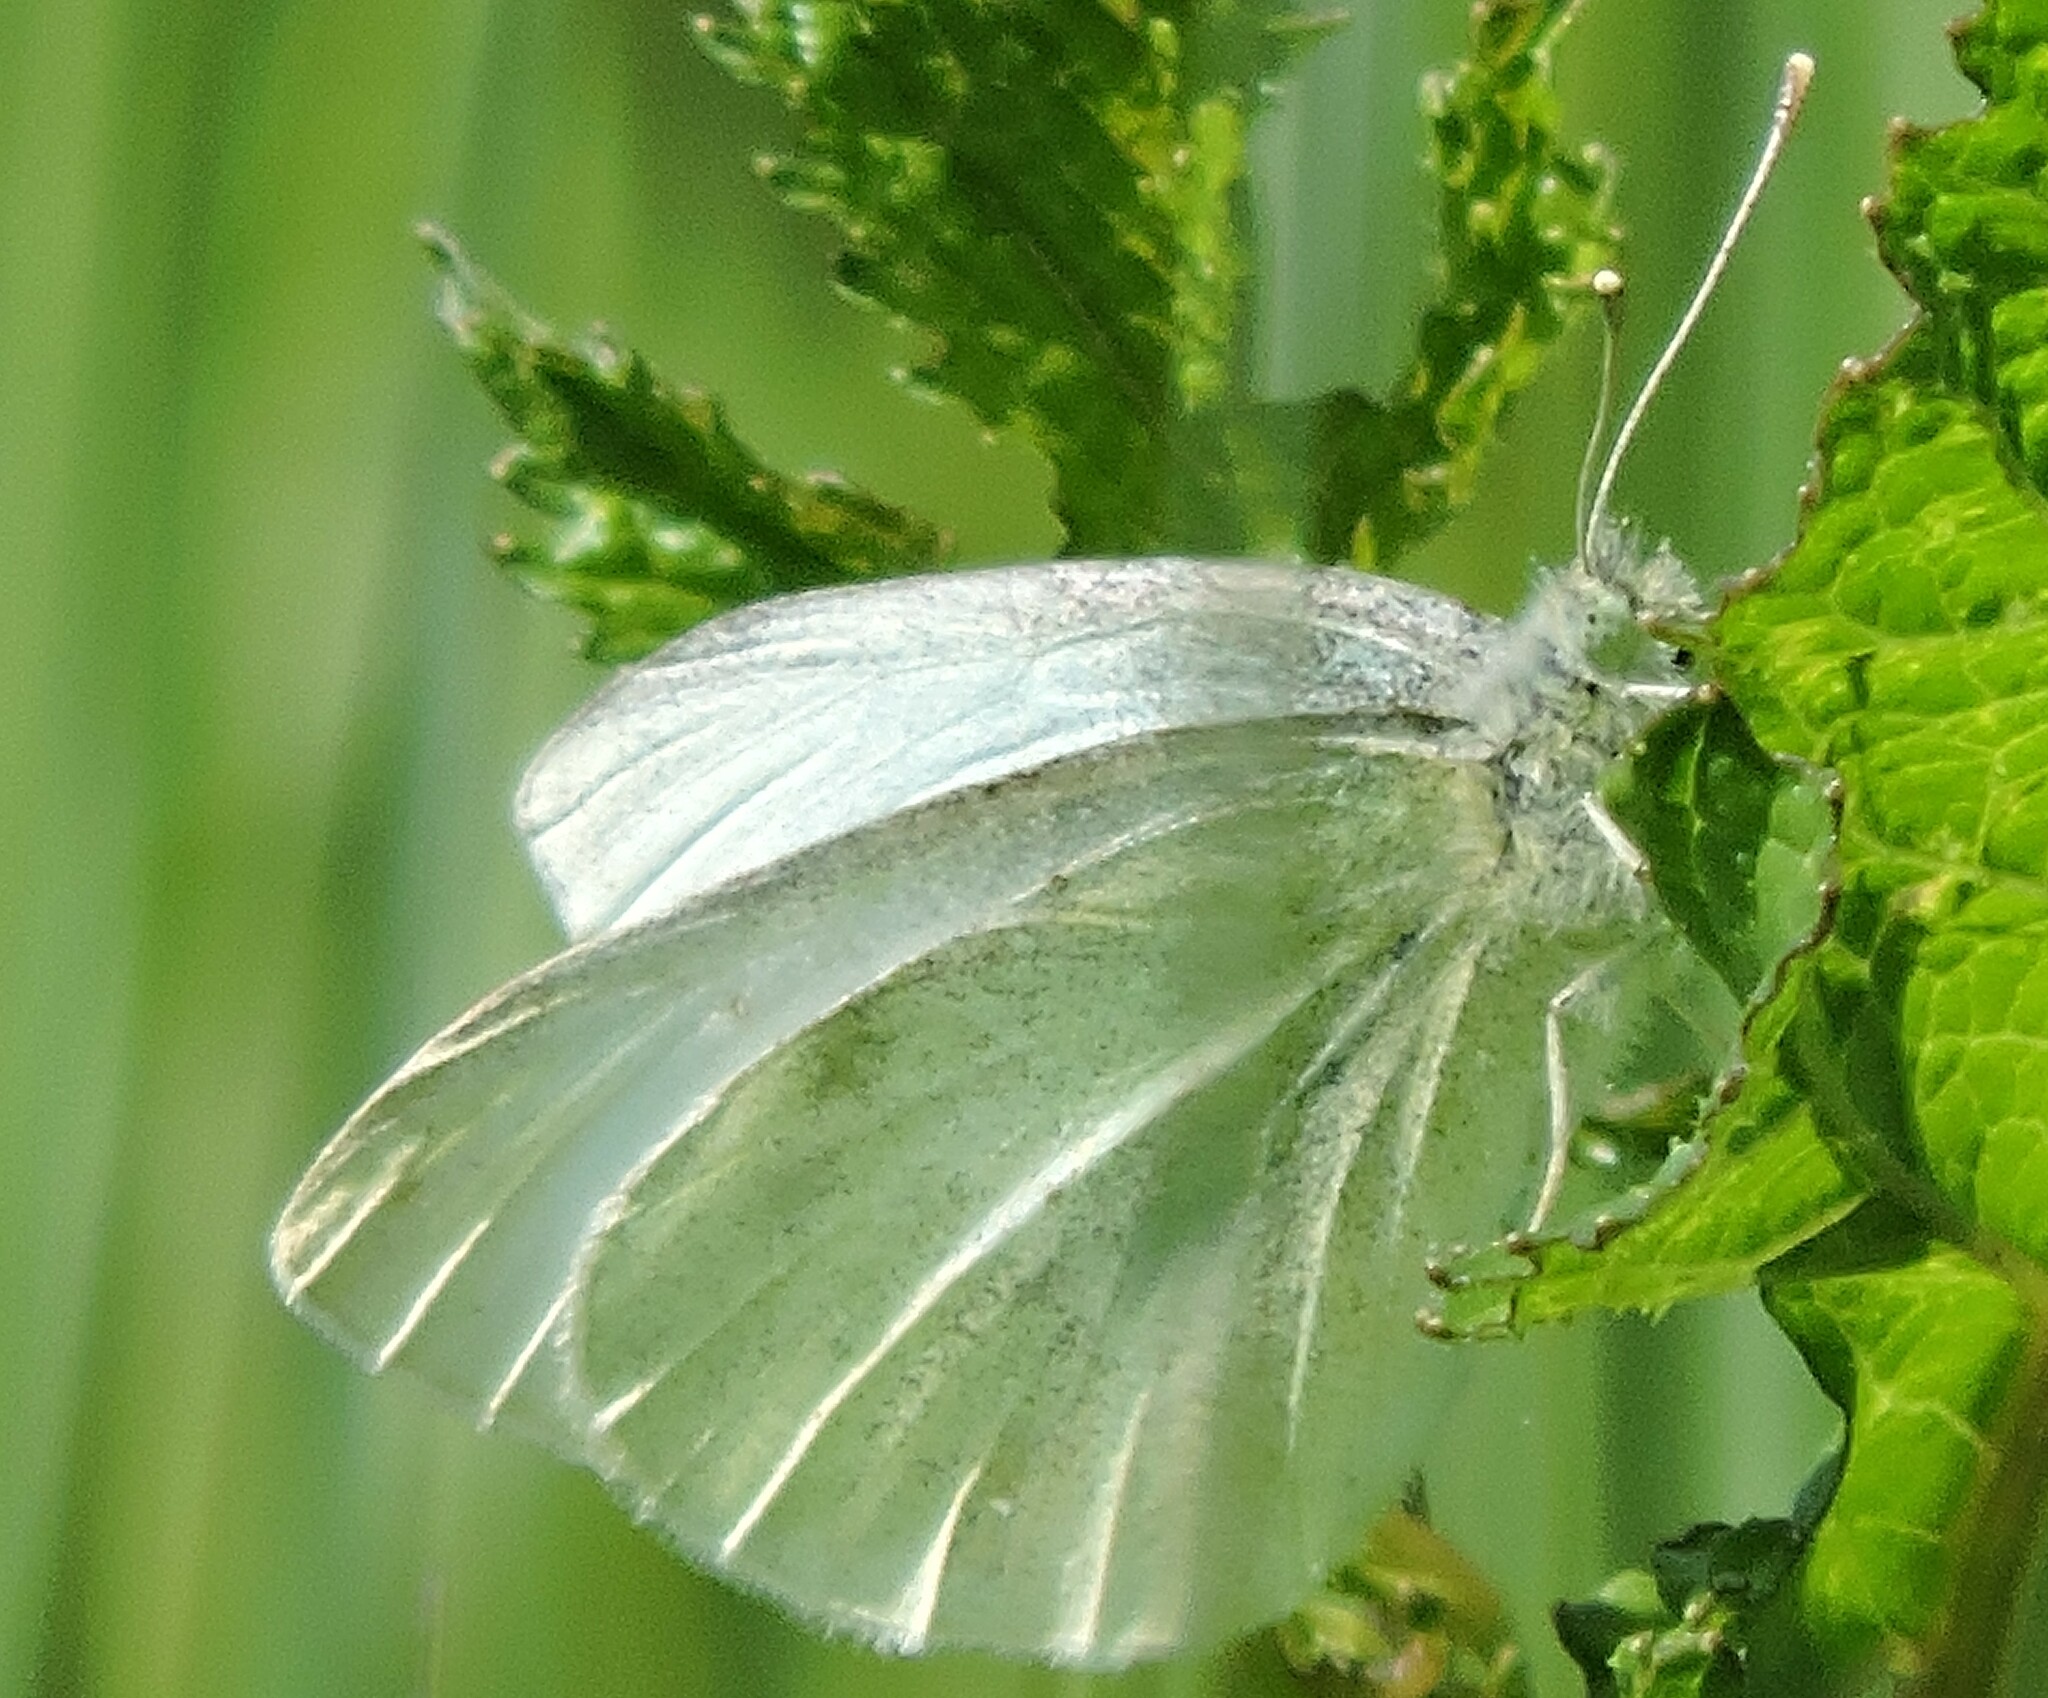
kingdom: Animalia
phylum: Arthropoda
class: Insecta
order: Lepidoptera
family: Pieridae
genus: Pieris
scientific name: Pieris rapae
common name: Small white
